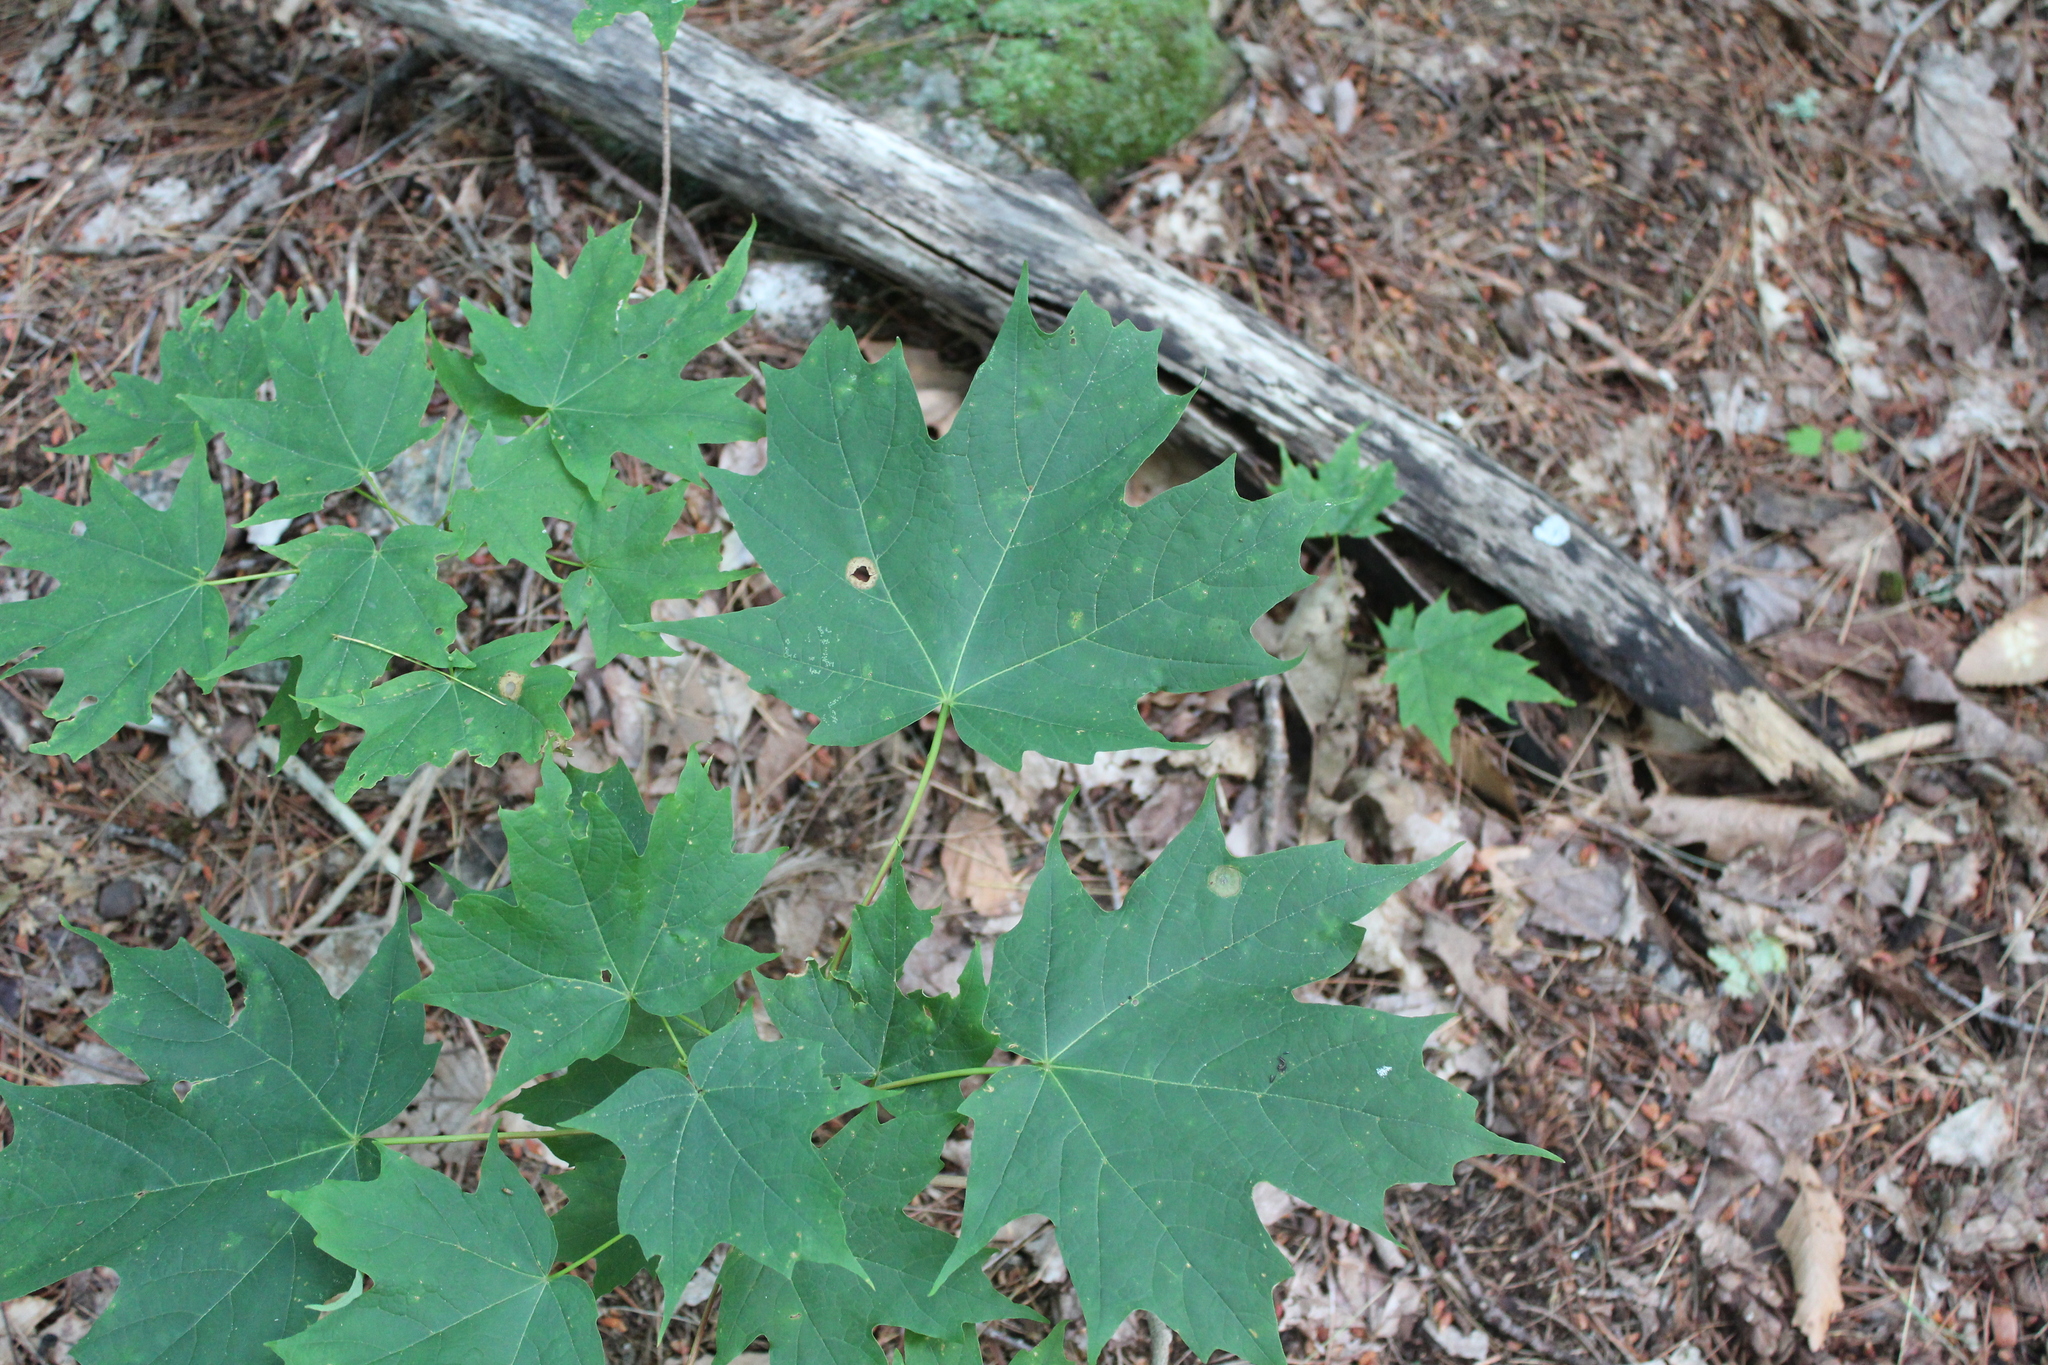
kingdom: Plantae
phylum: Tracheophyta
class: Magnoliopsida
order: Sapindales
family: Sapindaceae
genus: Acer
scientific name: Acer saccharum
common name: Sugar maple
